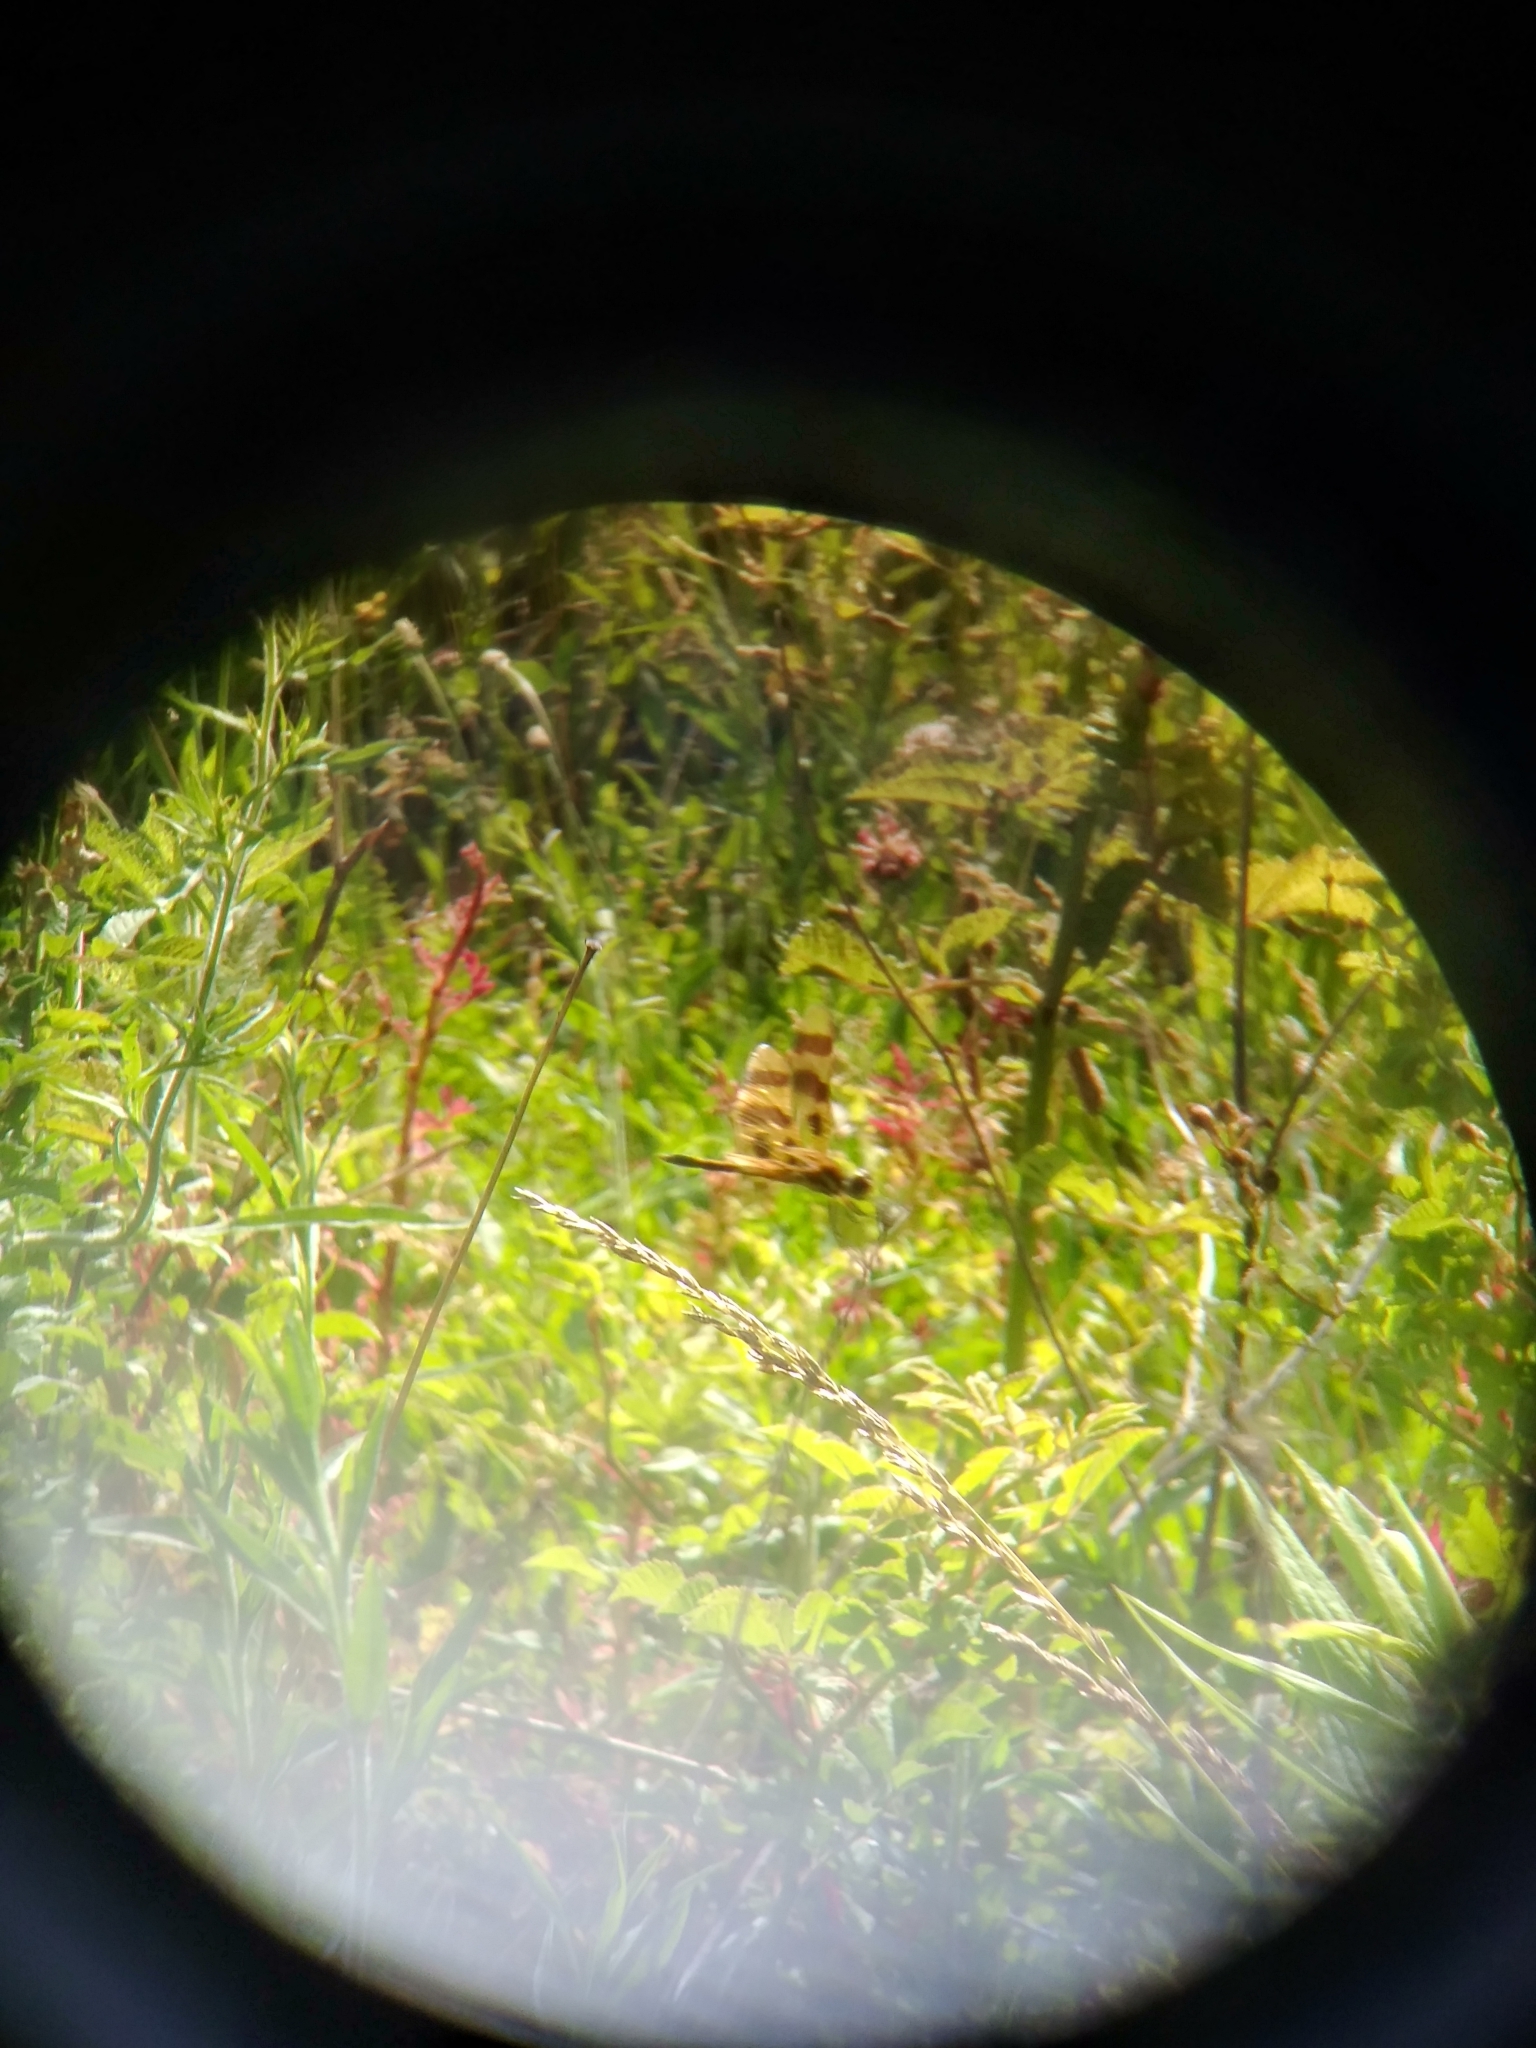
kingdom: Animalia
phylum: Arthropoda
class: Insecta
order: Odonata
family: Libellulidae
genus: Celithemis
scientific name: Celithemis eponina
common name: Halloween pennant
